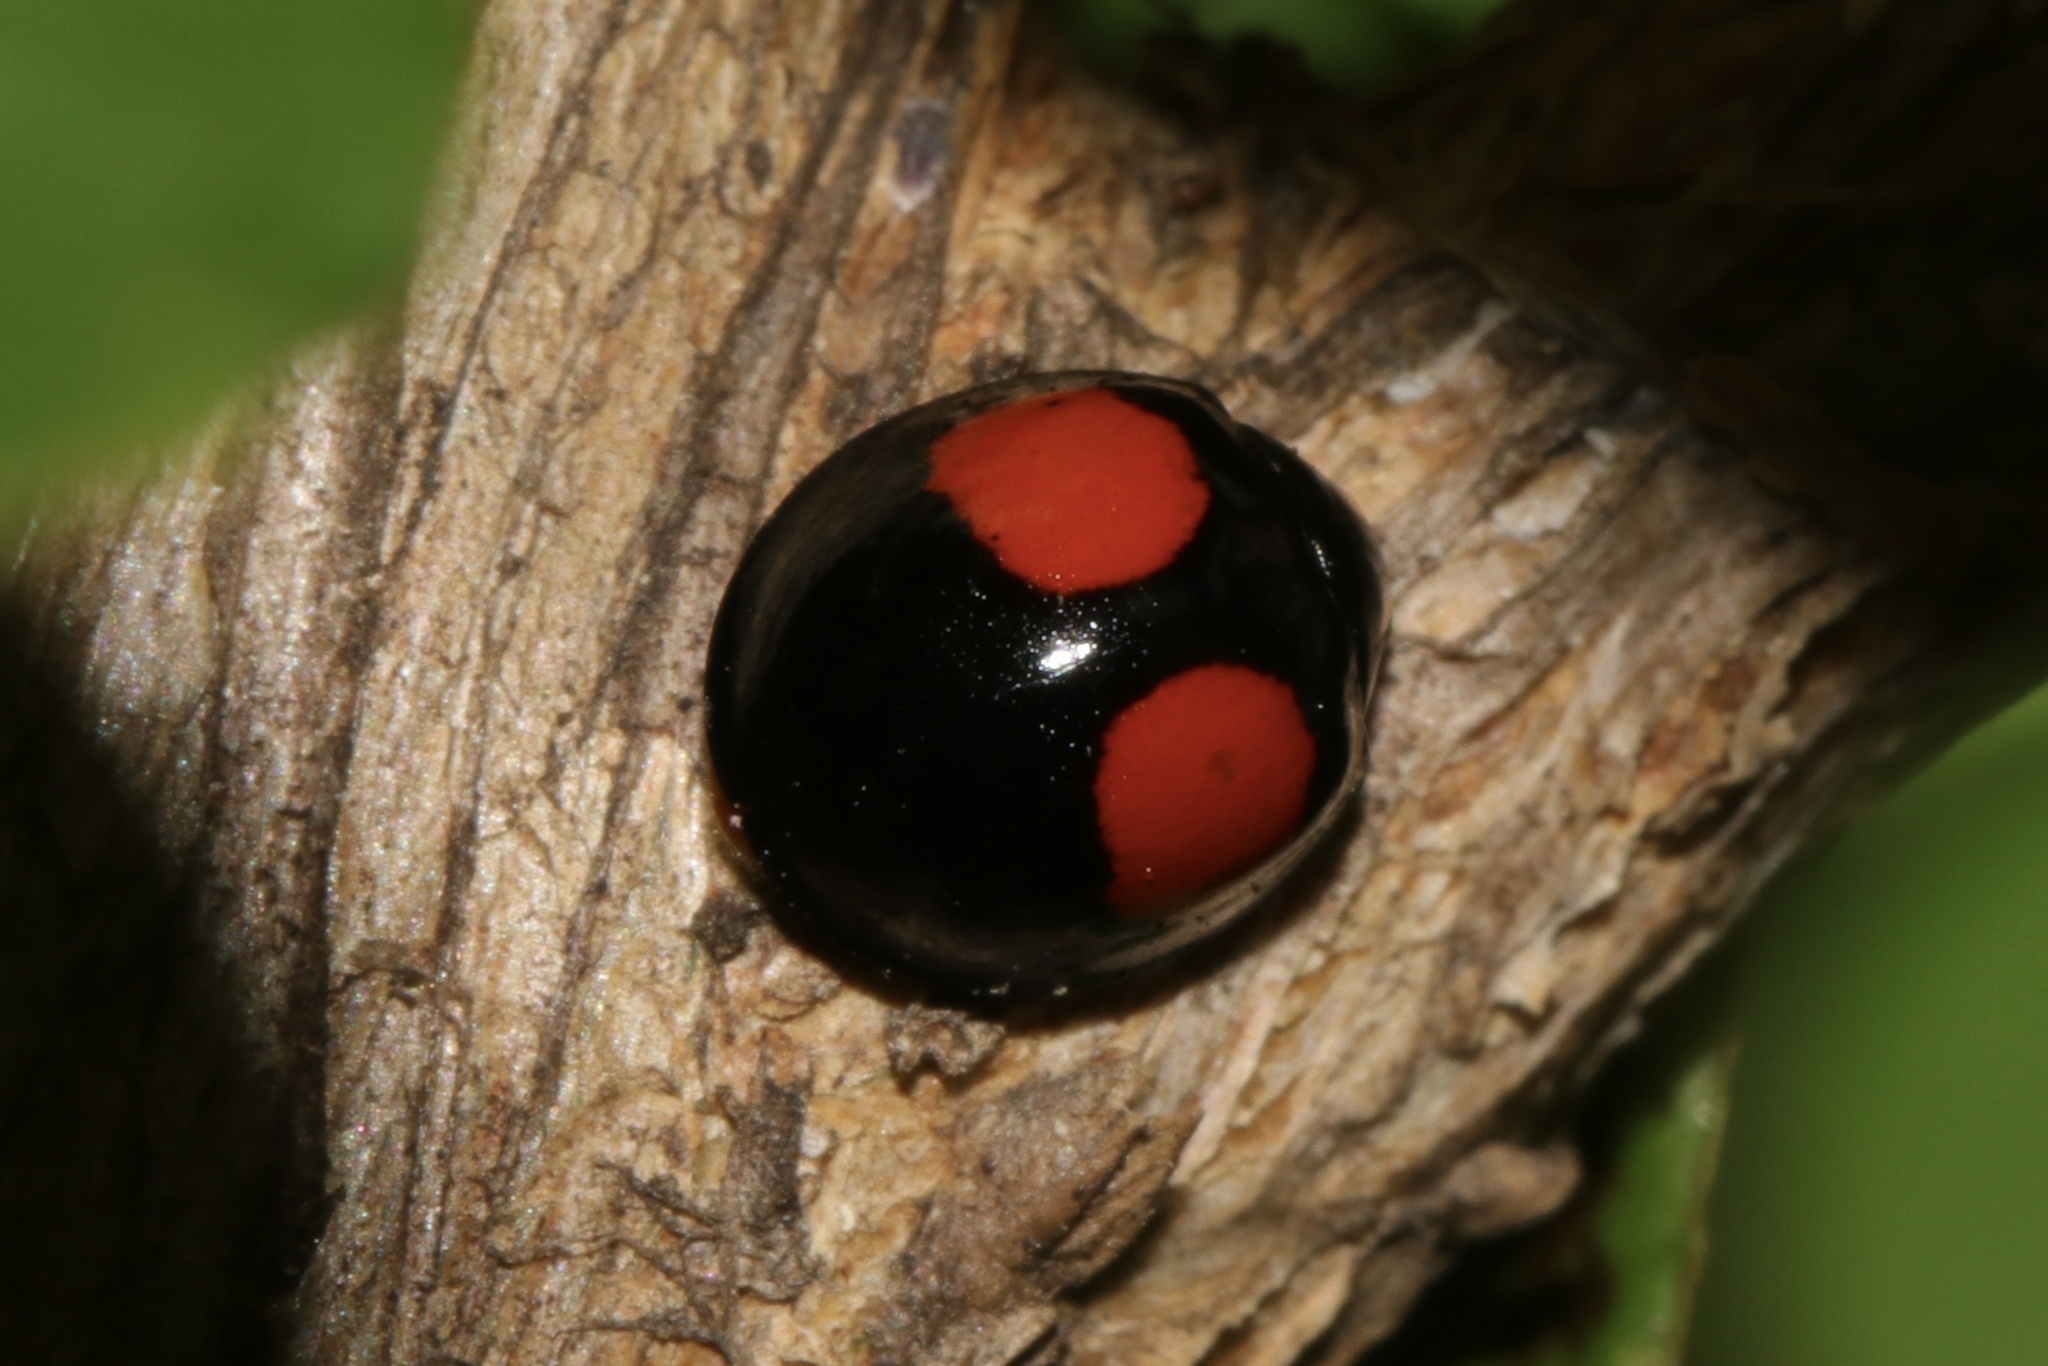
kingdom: Animalia
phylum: Arthropoda
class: Insecta
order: Coleoptera
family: Coccinellidae
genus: Chilocorus
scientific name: Chilocorus cacti
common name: Cactus lady beetle
